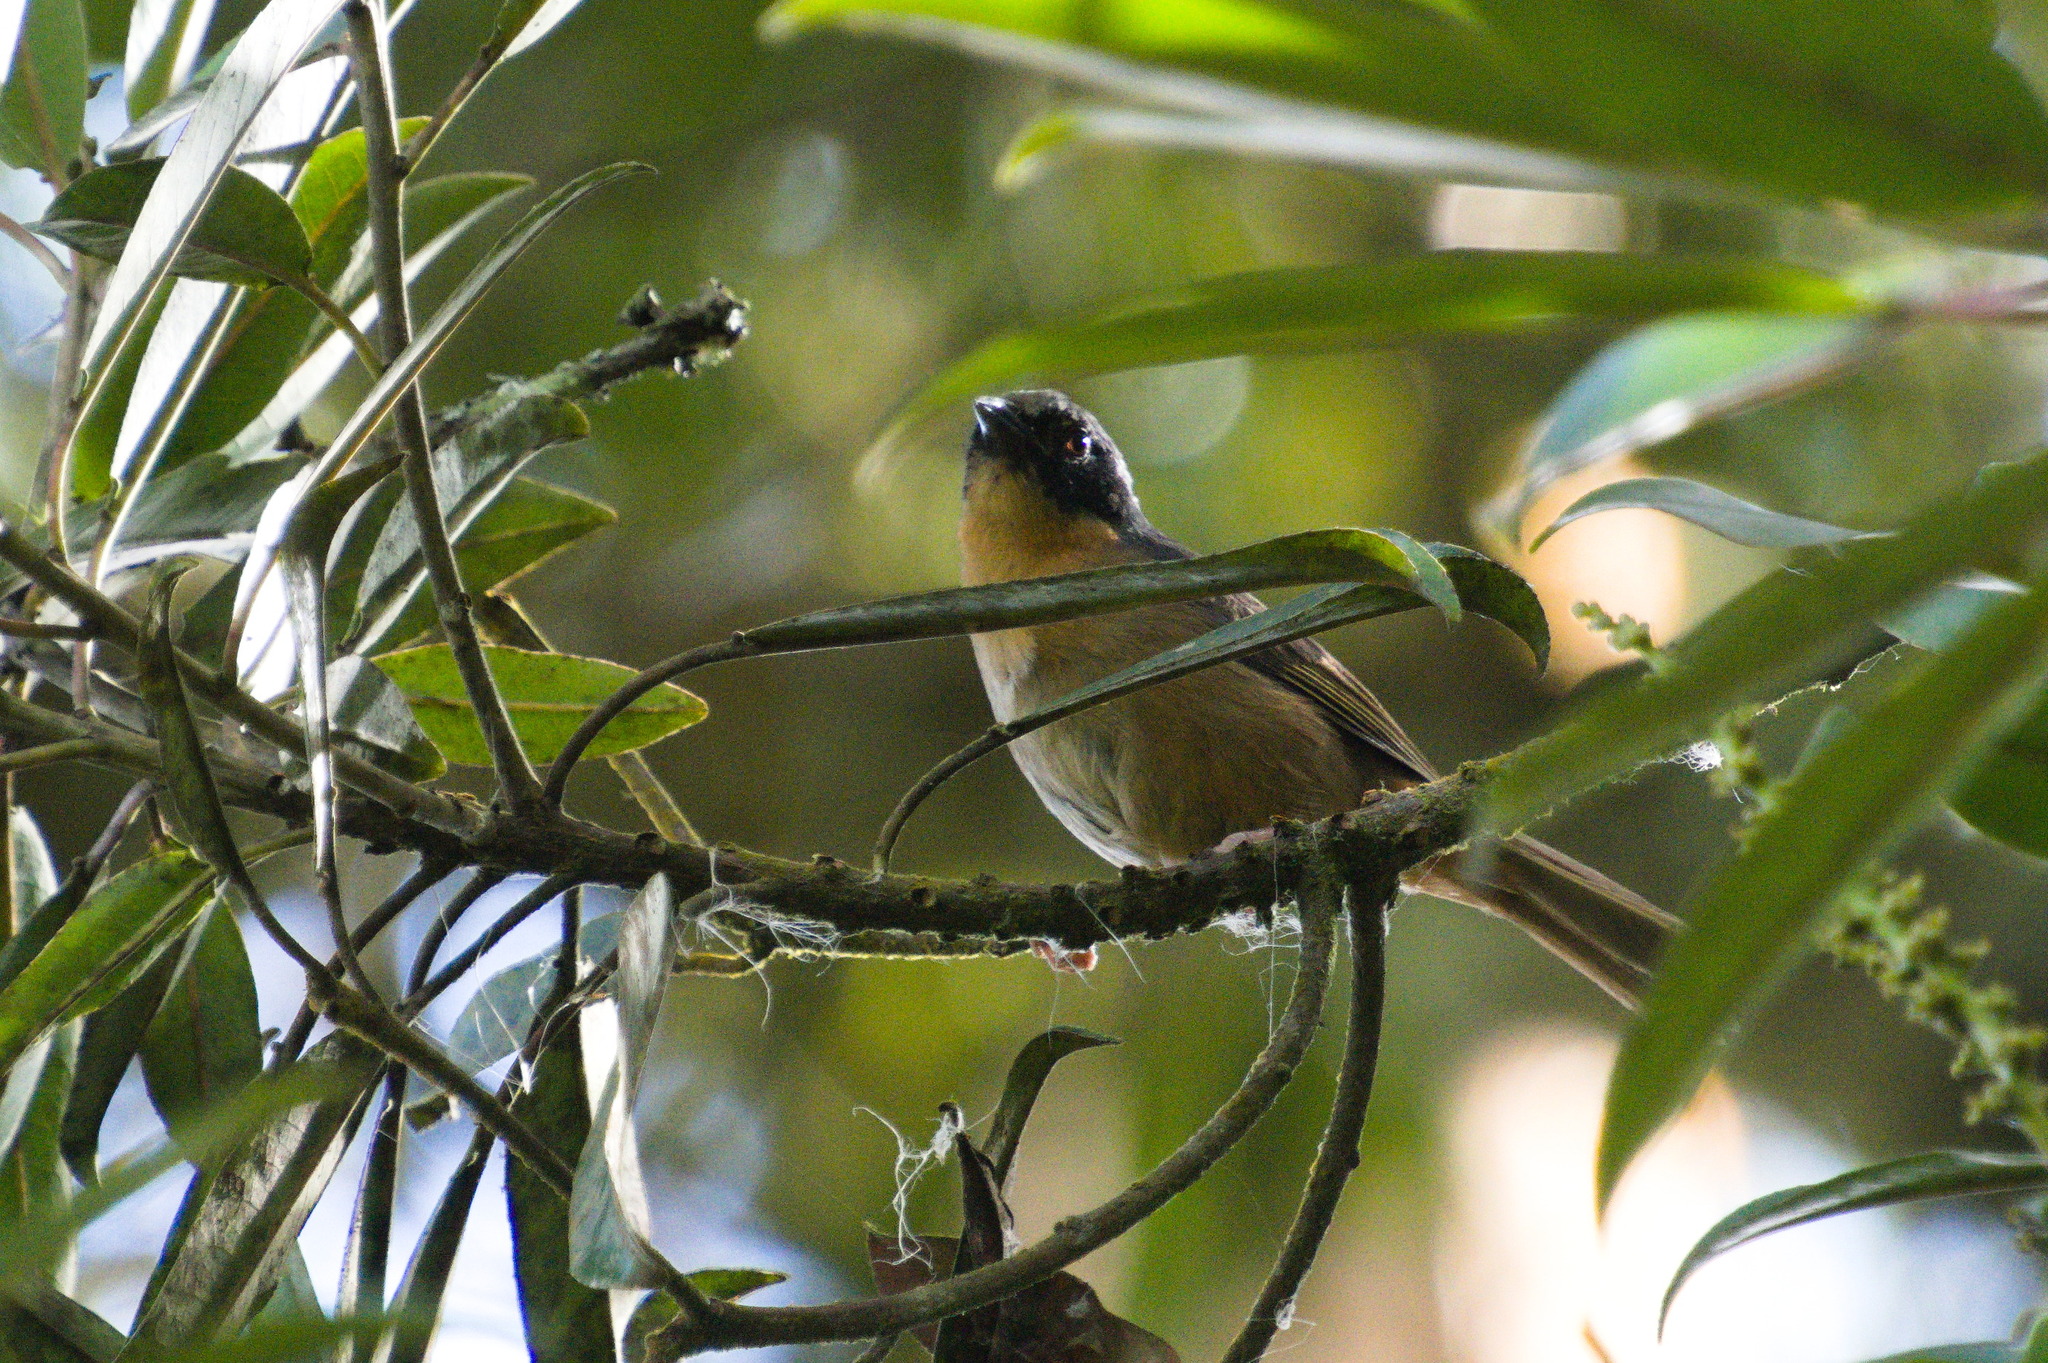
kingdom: Animalia
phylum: Chordata
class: Aves
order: Passeriformes
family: Thraupidae
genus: Sphenopsis
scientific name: Sphenopsis melanotis
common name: Black-eared hemispingus
